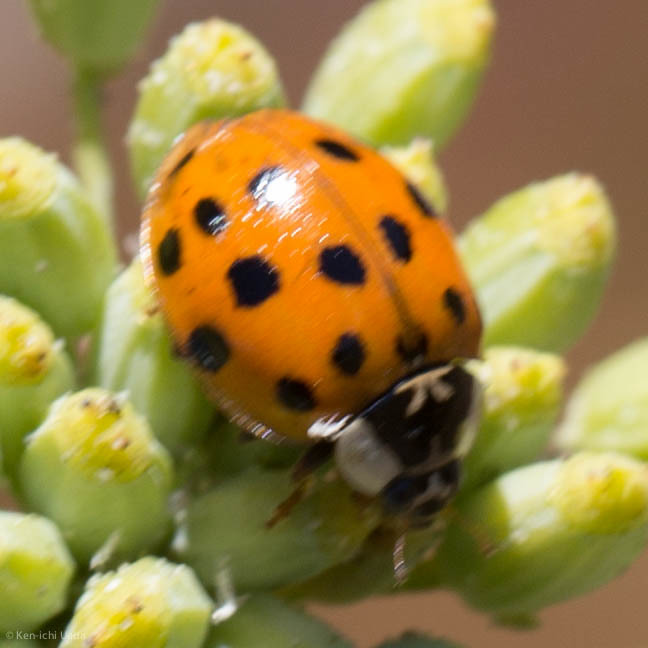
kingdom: Animalia
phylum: Arthropoda
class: Insecta
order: Coleoptera
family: Coccinellidae
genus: Harmonia
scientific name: Harmonia axyridis
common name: Harlequin ladybird
